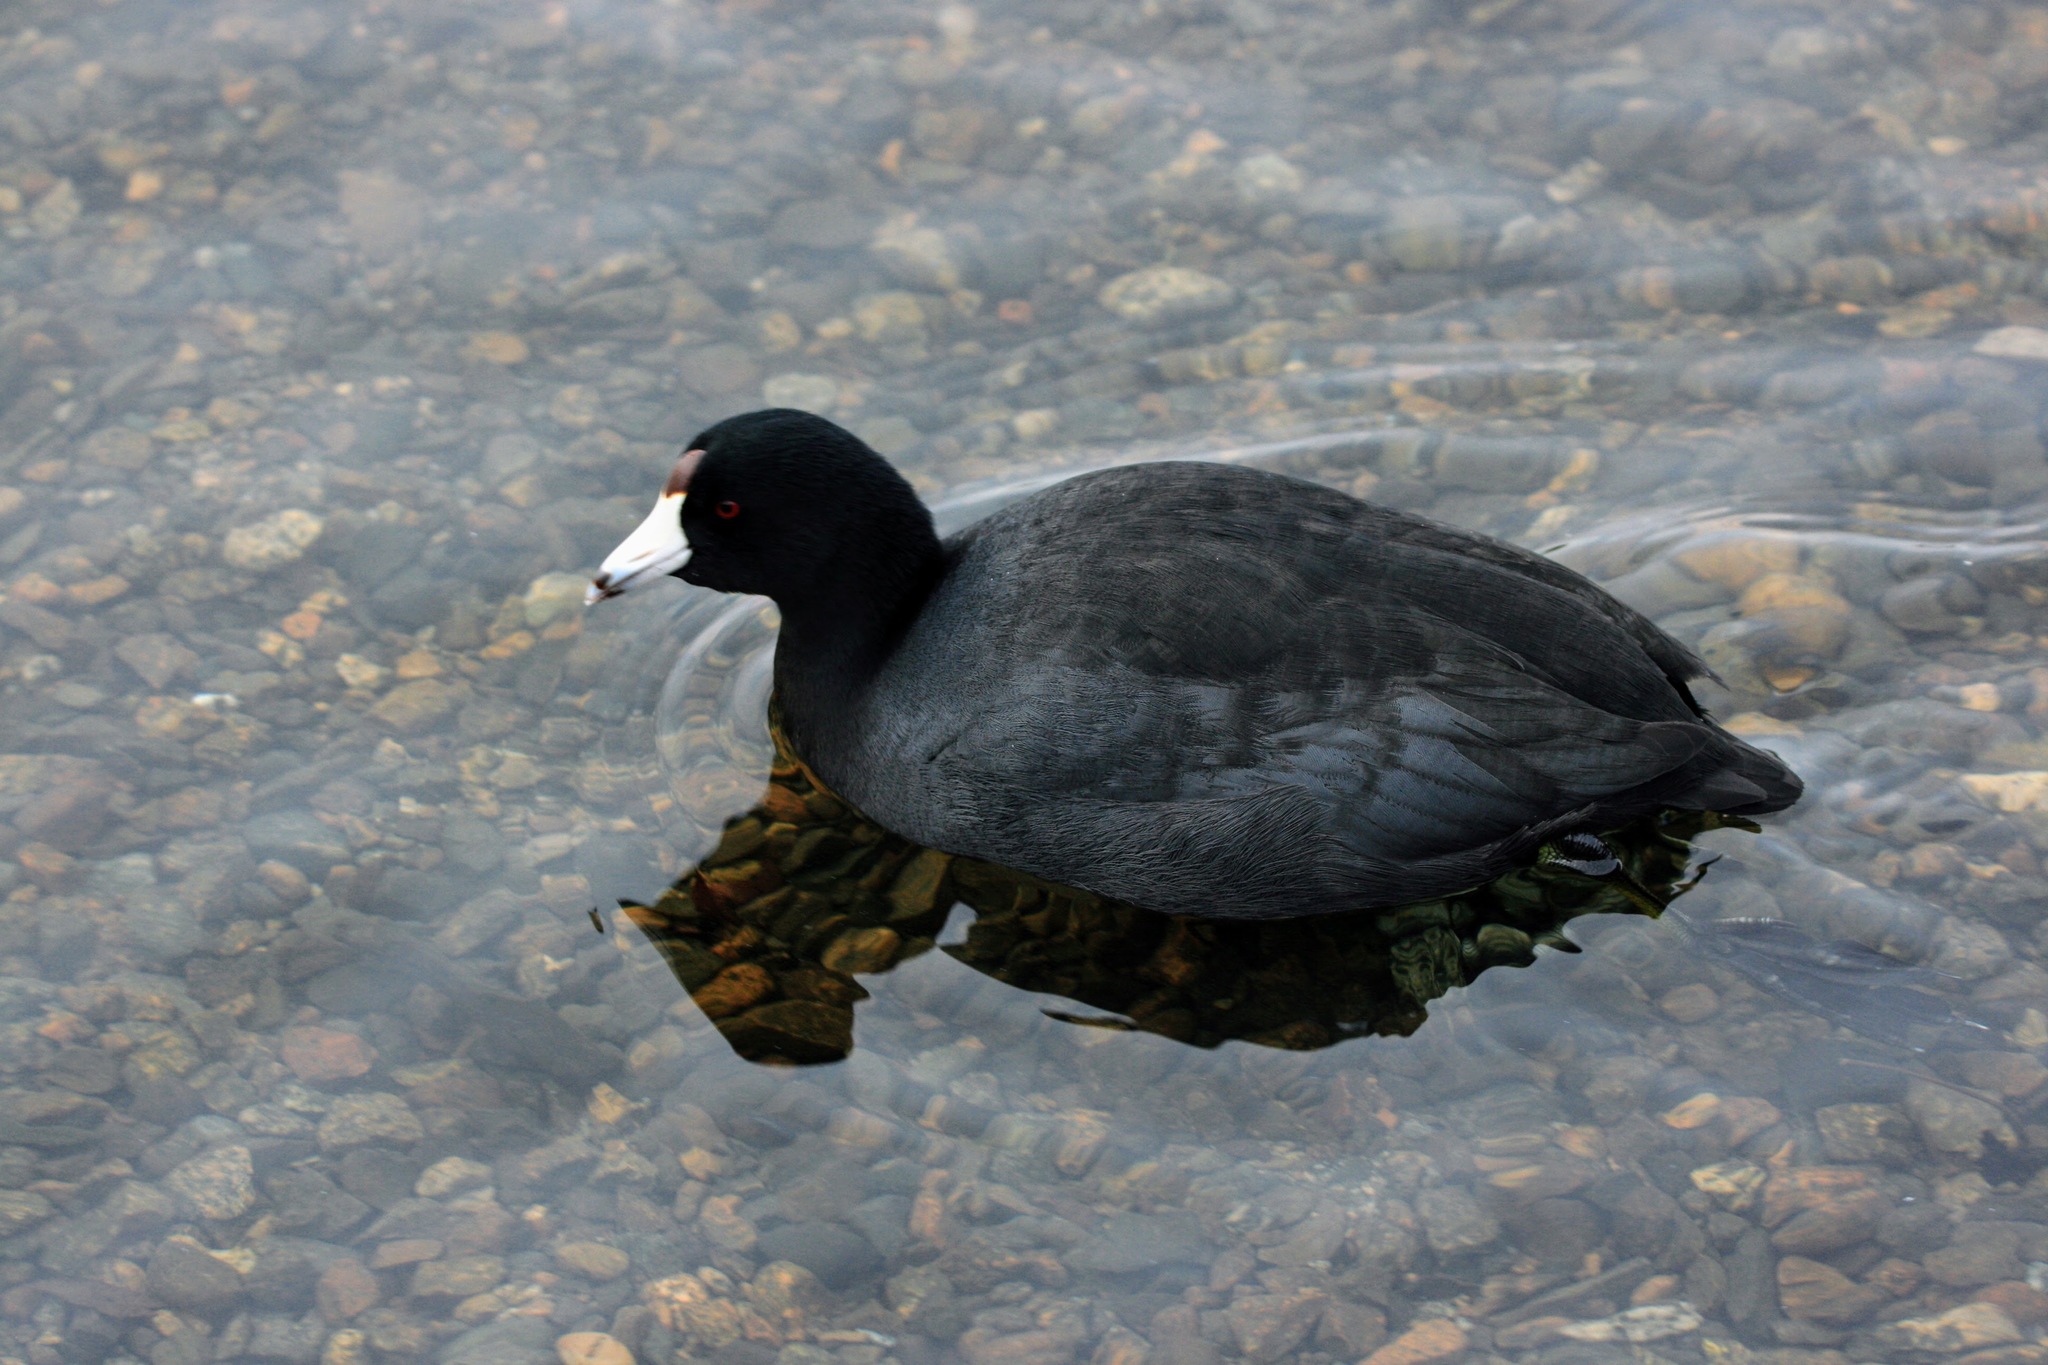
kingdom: Animalia
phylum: Chordata
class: Aves
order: Gruiformes
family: Rallidae
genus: Fulica
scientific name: Fulica americana
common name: American coot
